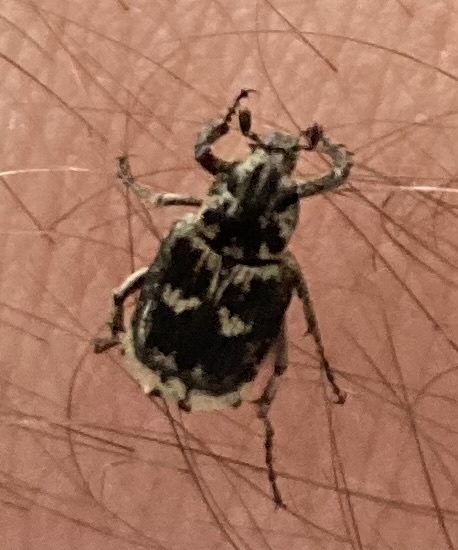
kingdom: Animalia
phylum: Arthropoda
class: Insecta
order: Coleoptera
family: Scarabaeidae
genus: Valgus
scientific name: Valgus hemipterus
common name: Bug flower chafer
